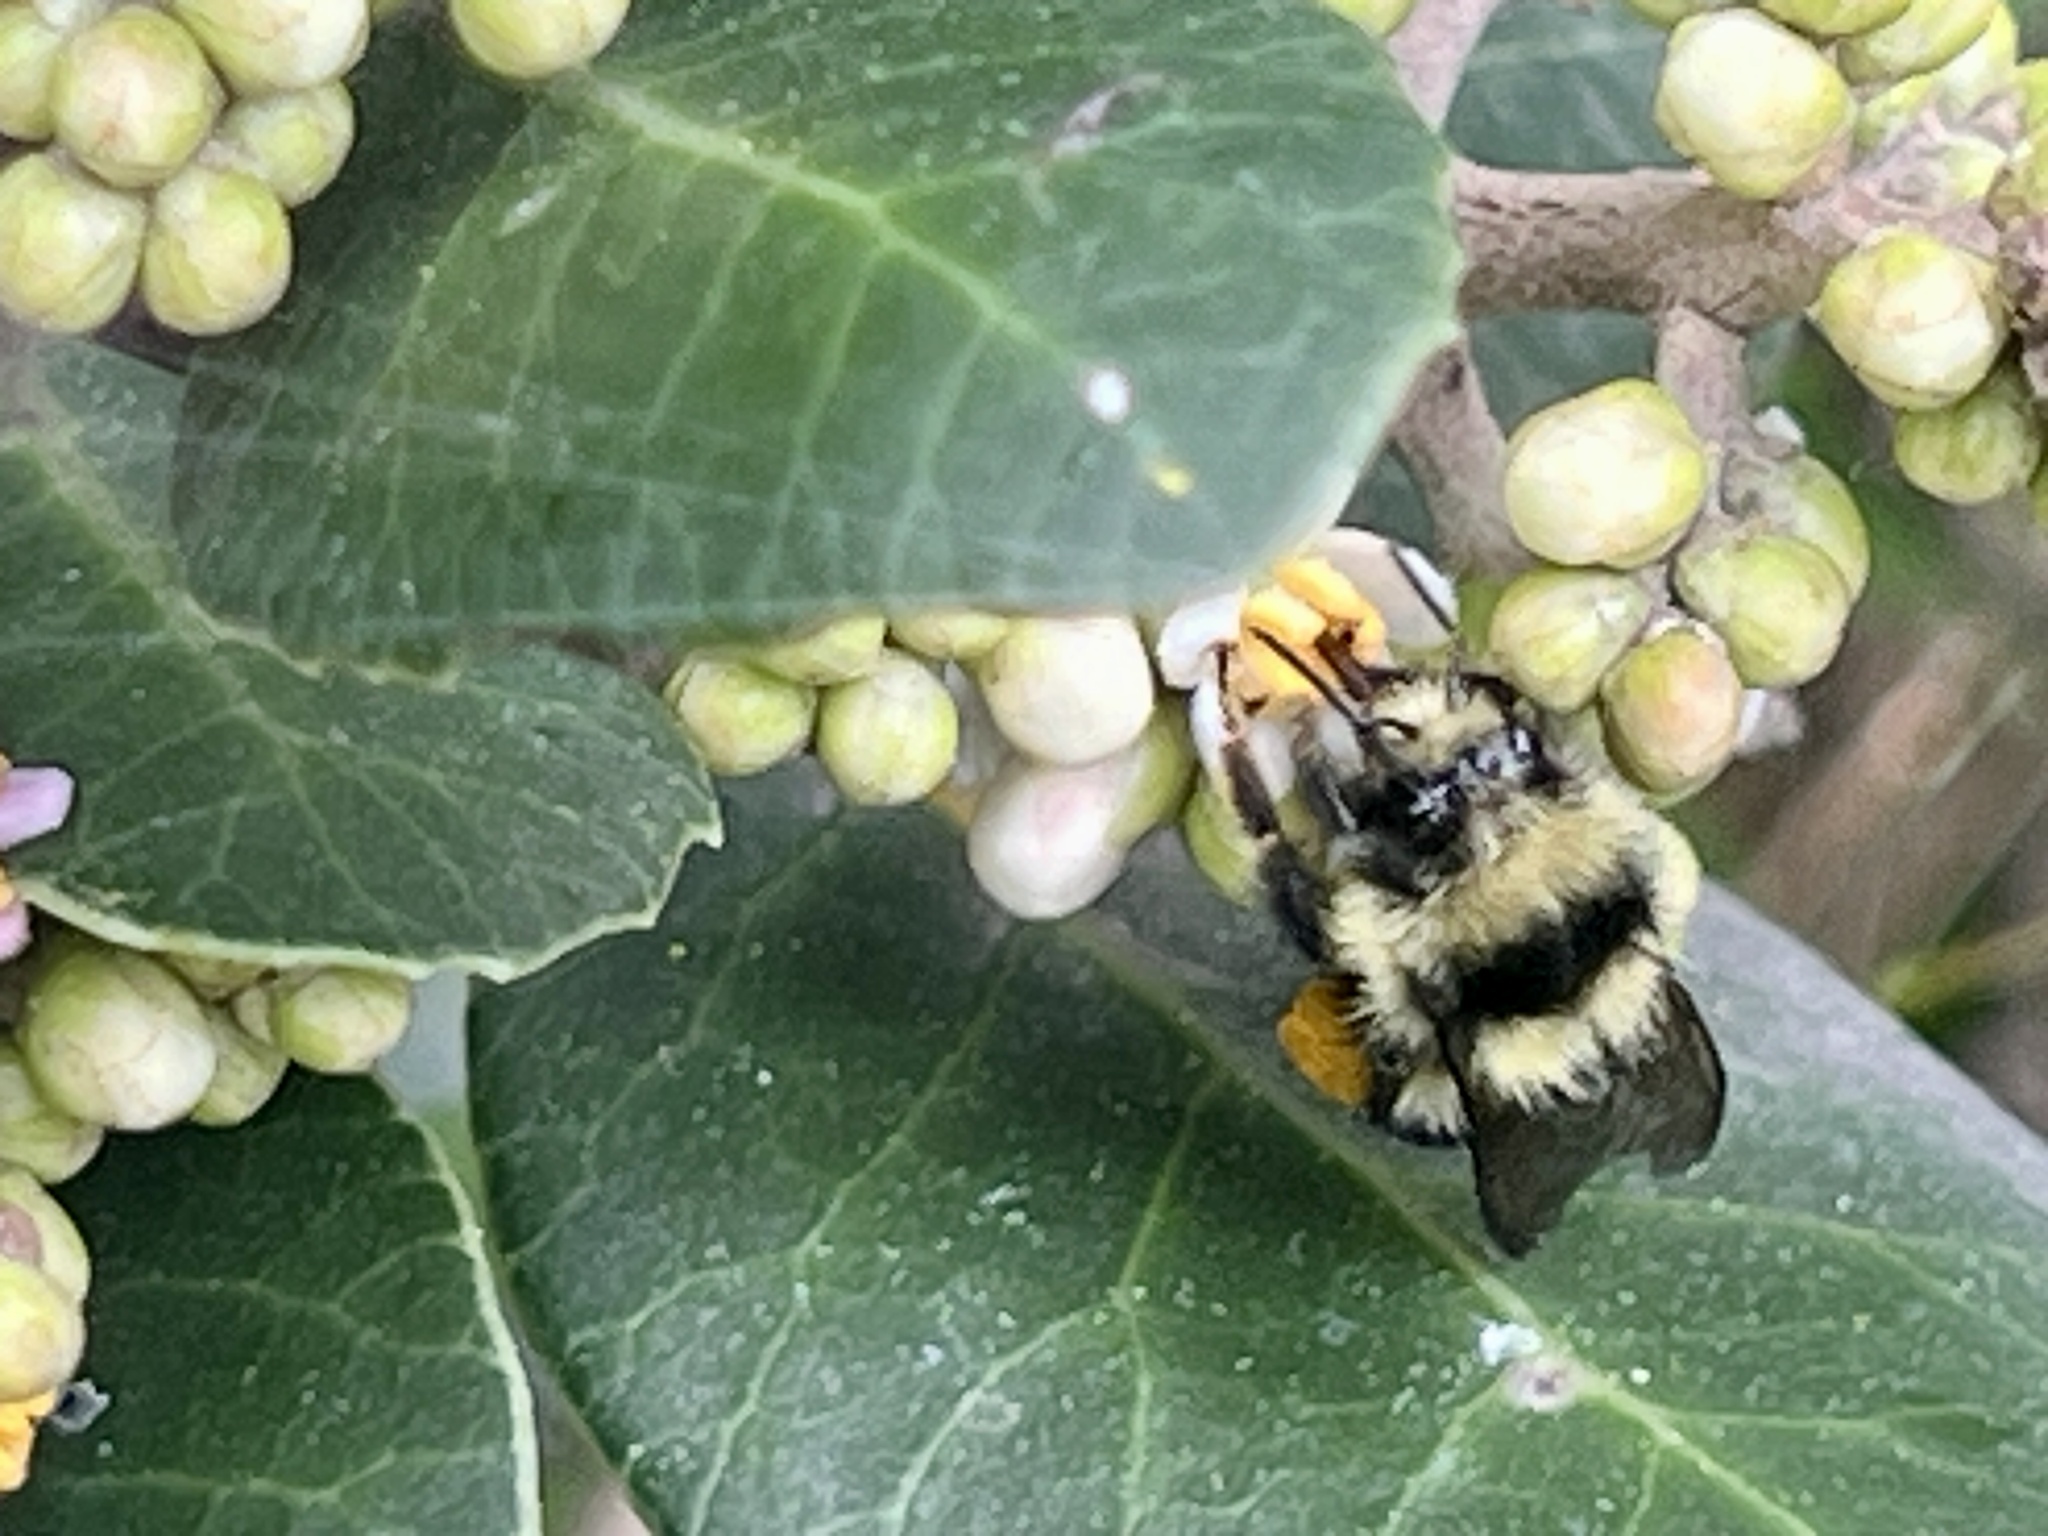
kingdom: Animalia
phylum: Arthropoda
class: Insecta
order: Hymenoptera
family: Apidae
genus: Bombus
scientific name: Bombus melanopygus
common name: Black tail bumble bee
